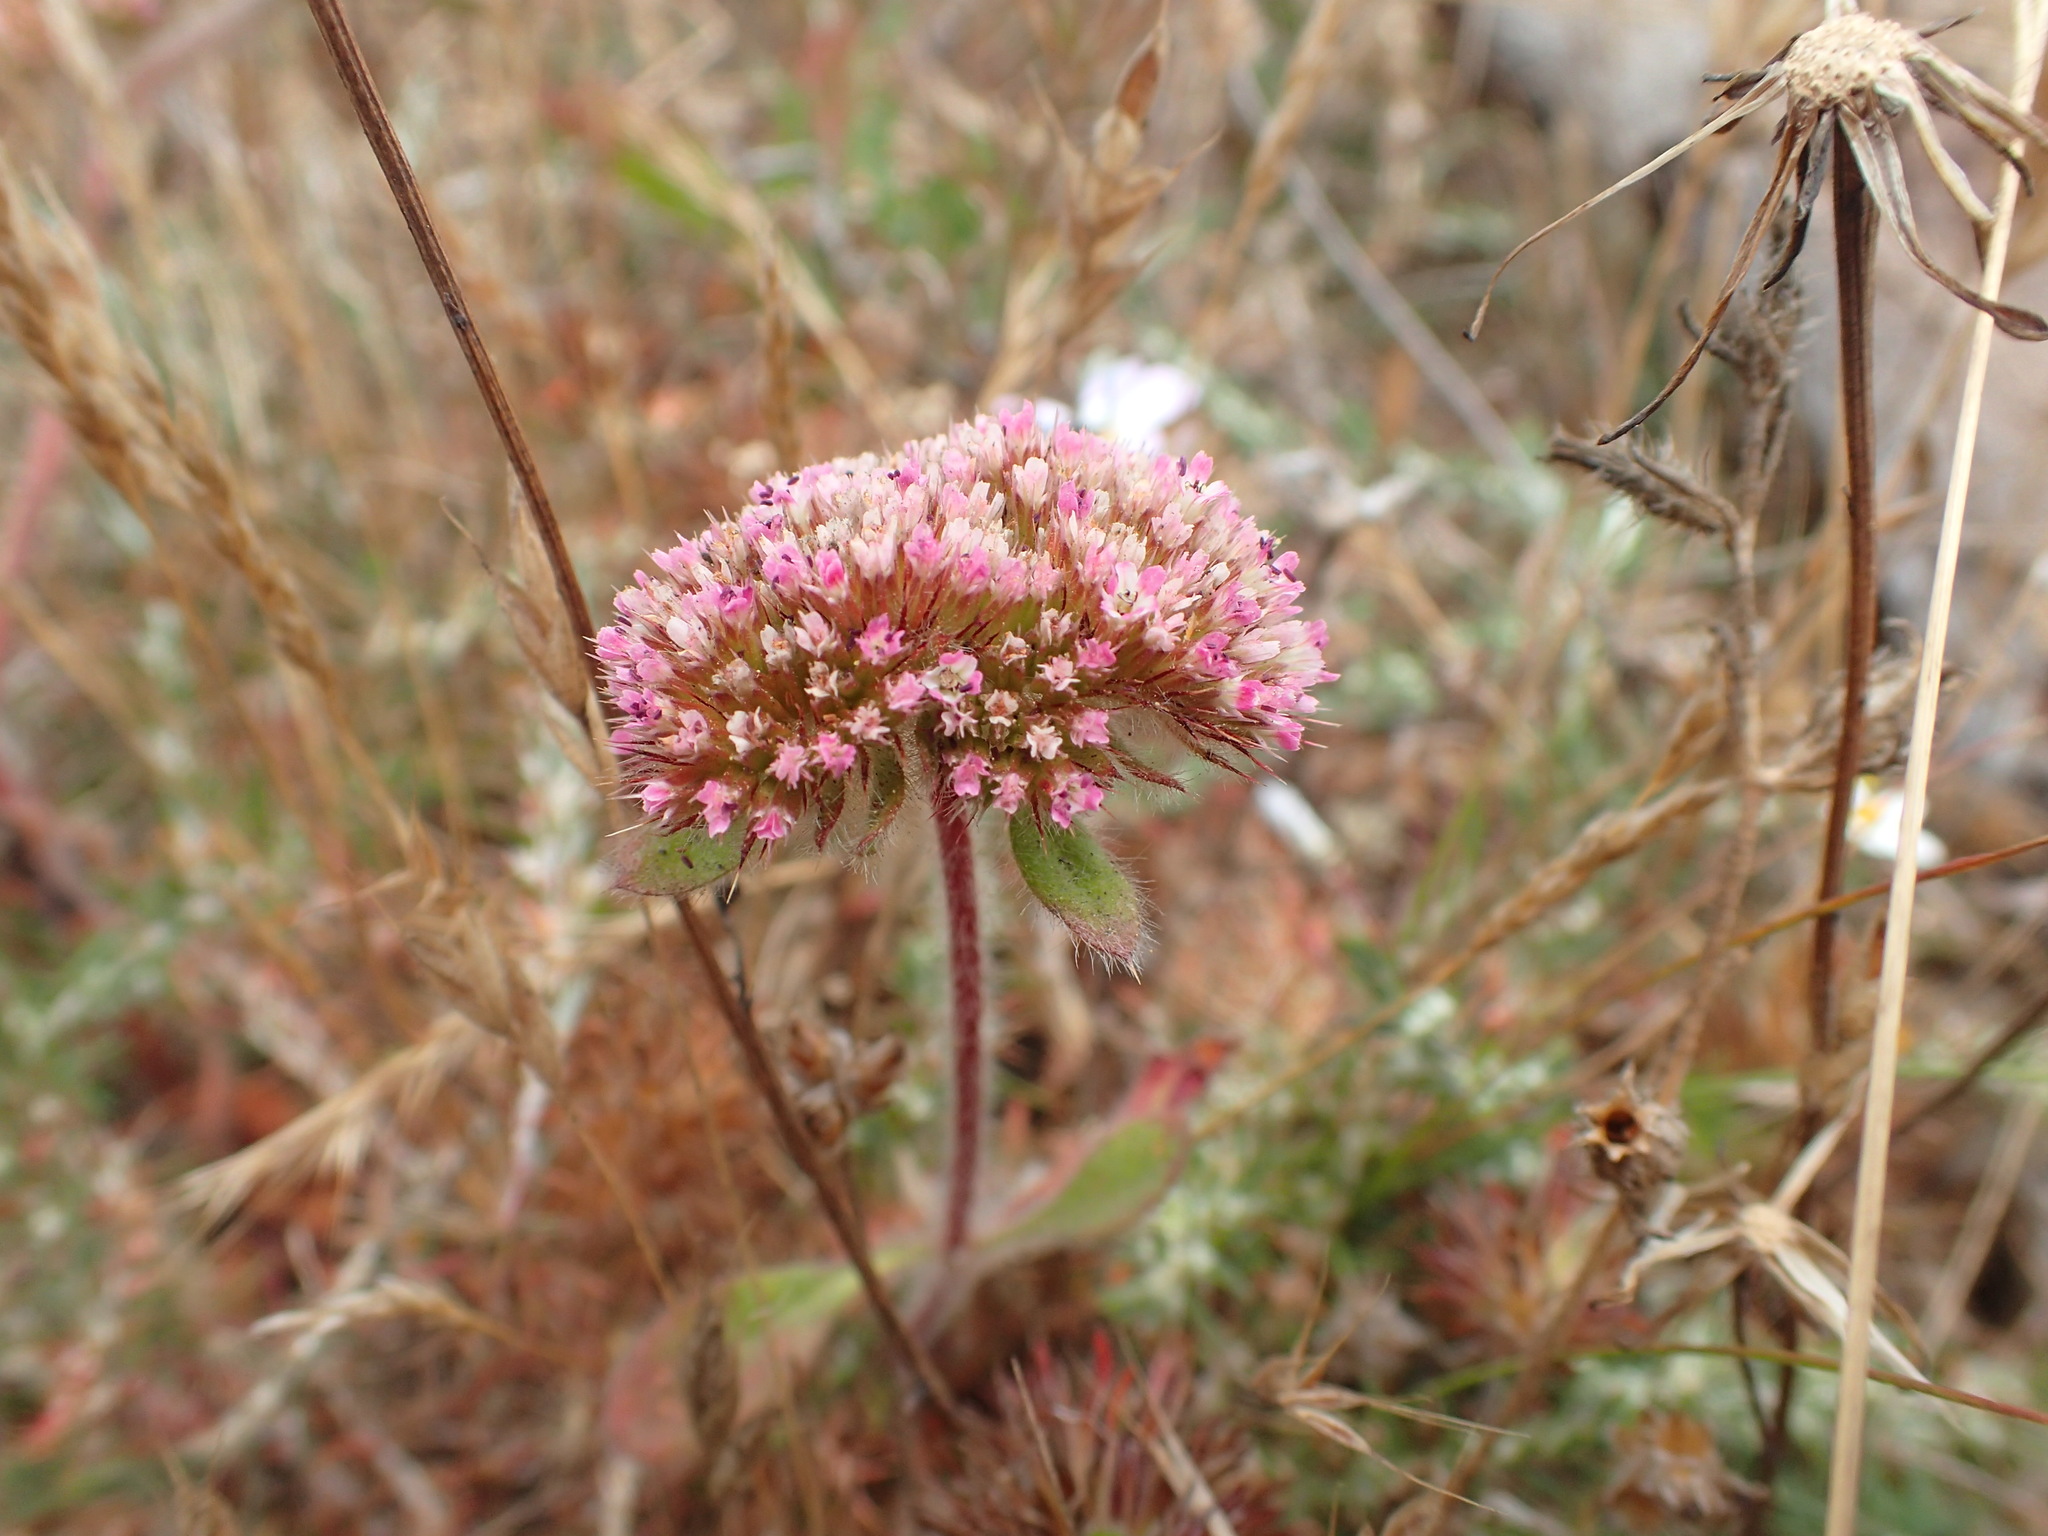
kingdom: Plantae
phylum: Tracheophyta
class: Magnoliopsida
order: Caryophyllales
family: Polygonaceae
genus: Chorizanthe
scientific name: Chorizanthe valida
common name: Sonoma spineflower
